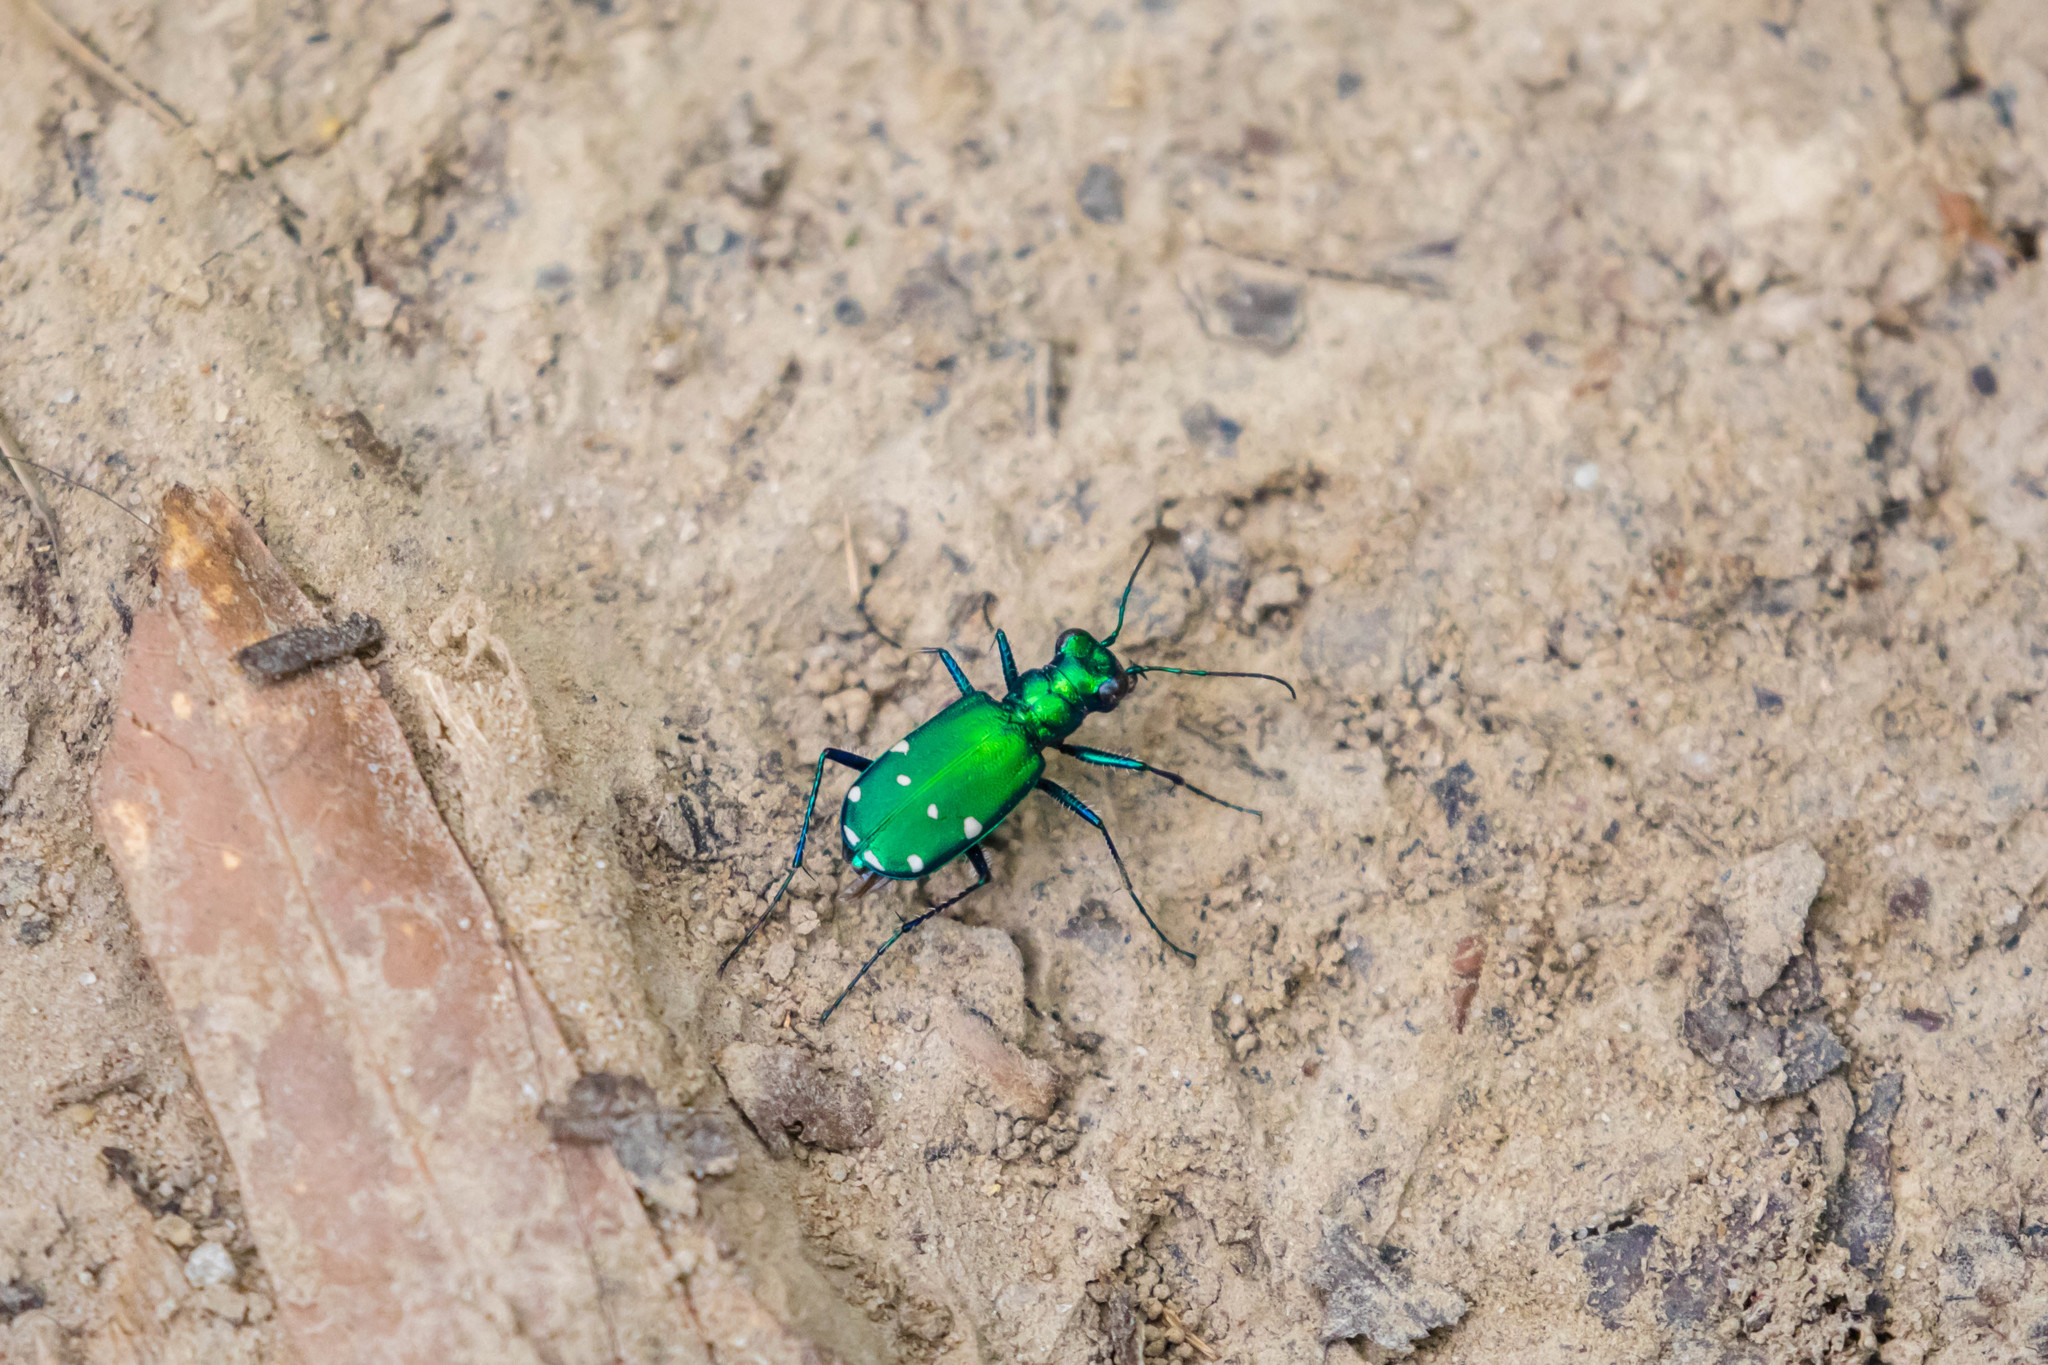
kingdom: Animalia
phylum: Arthropoda
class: Insecta
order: Coleoptera
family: Carabidae
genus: Cicindela
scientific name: Cicindela sexguttata
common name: Six-spotted tiger beetle
